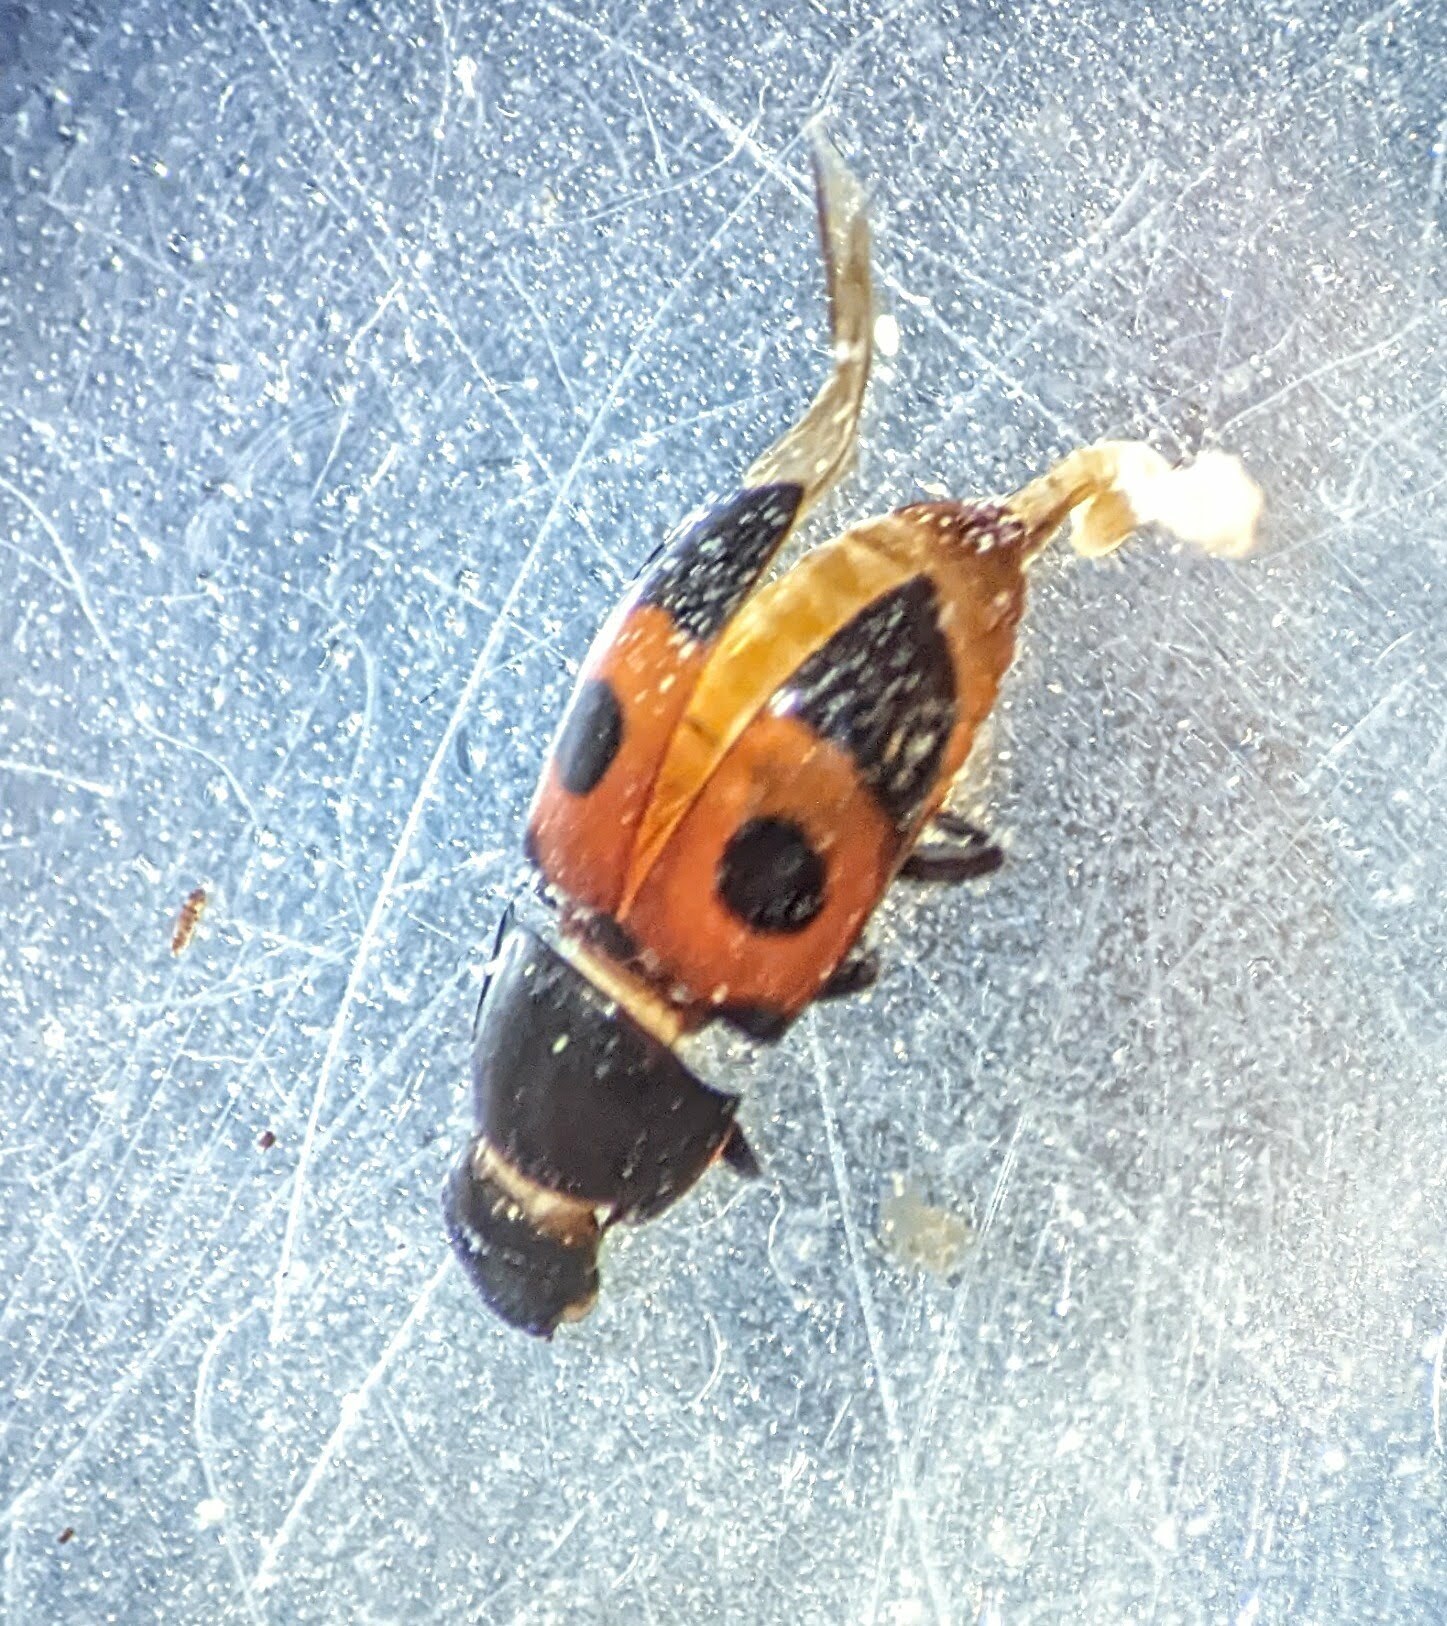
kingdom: Animalia
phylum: Arthropoda
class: Insecta
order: Coleoptera
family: Nitidulidae
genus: Glischrochilus
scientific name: Glischrochilus sanguinolentus
